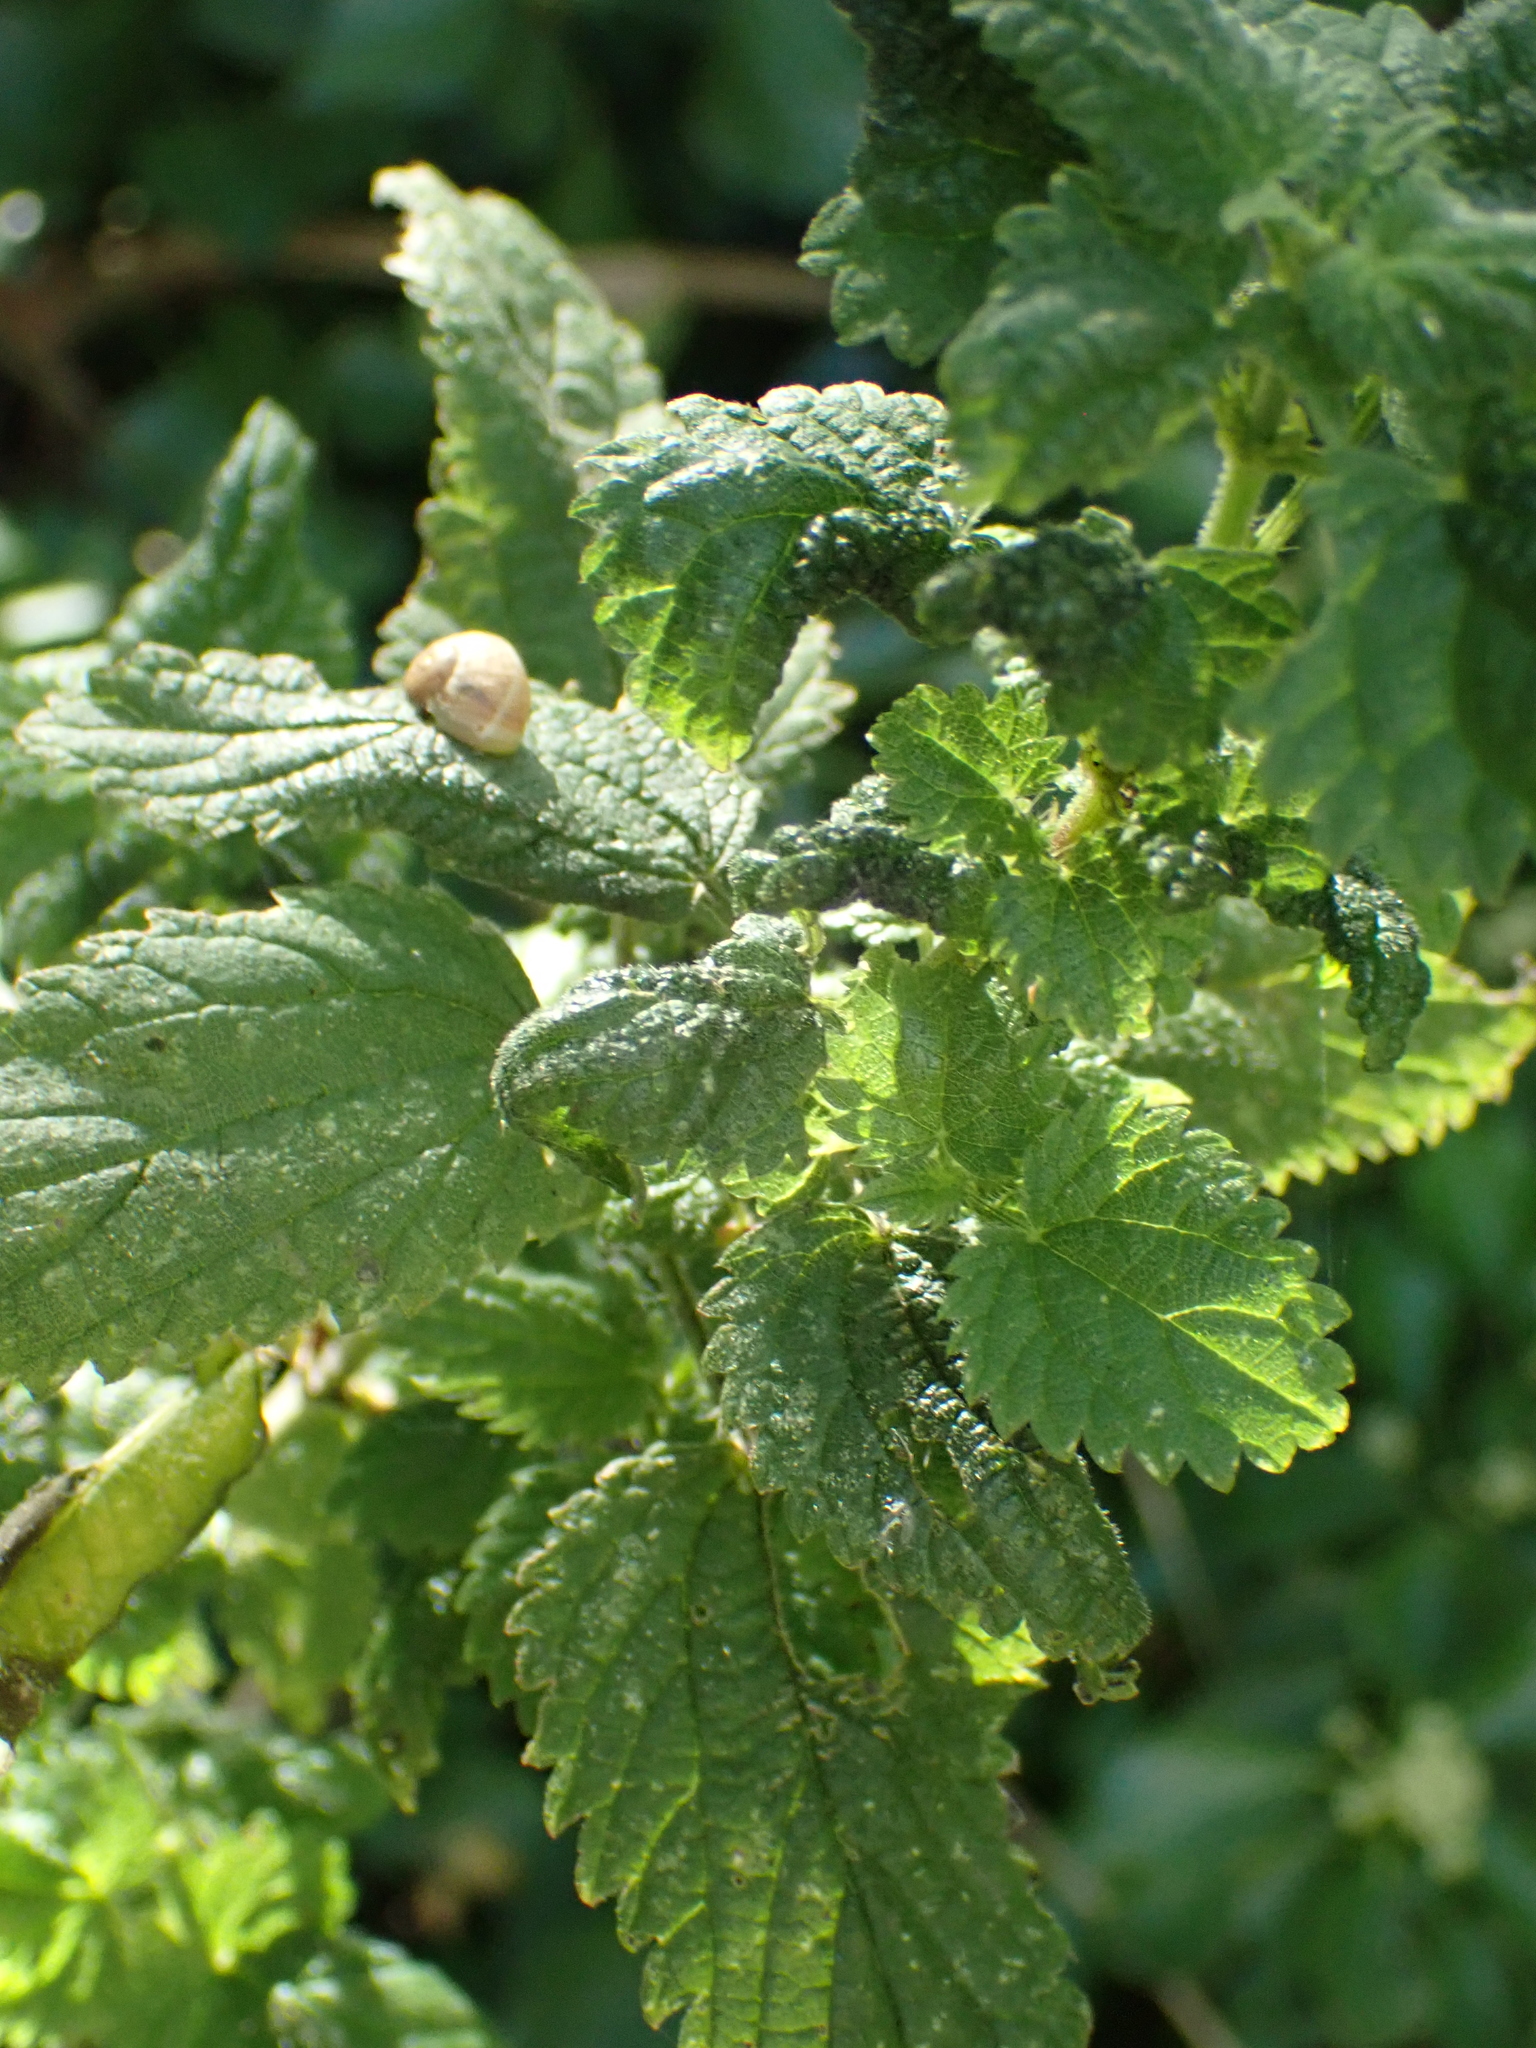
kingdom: Plantae
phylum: Tracheophyta
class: Magnoliopsida
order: Rosales
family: Urticaceae
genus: Urtica
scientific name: Urtica dioica
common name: Common nettle
